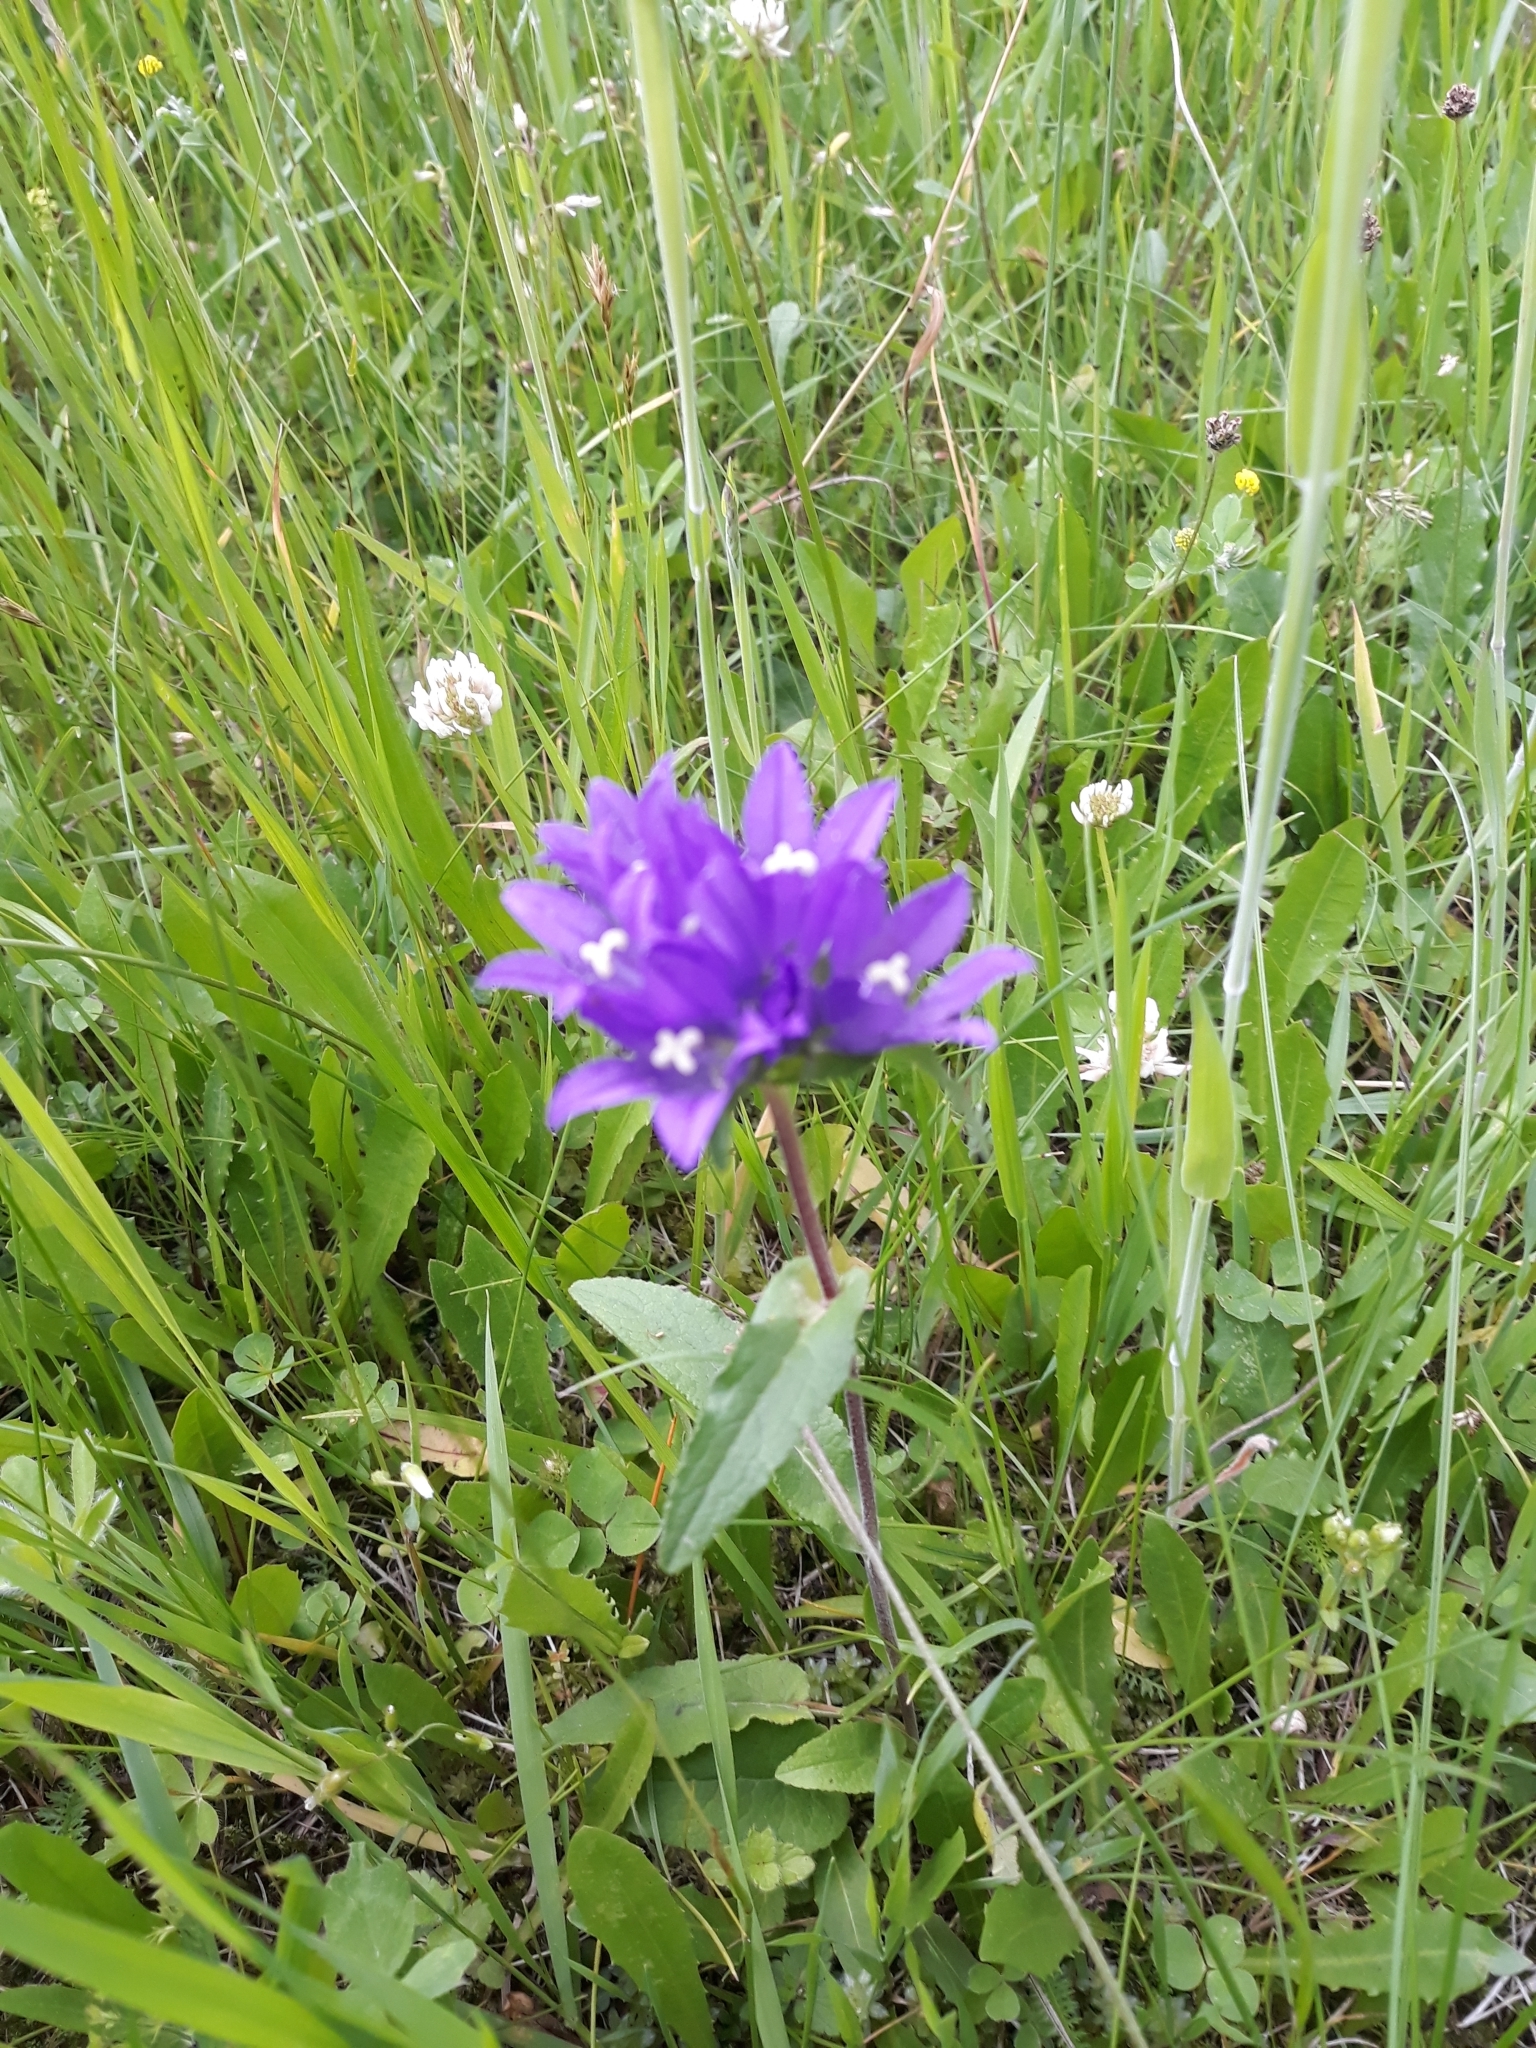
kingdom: Plantae
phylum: Tracheophyta
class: Magnoliopsida
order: Asterales
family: Campanulaceae
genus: Campanula
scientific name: Campanula glomerata
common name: Clustered bellflower
